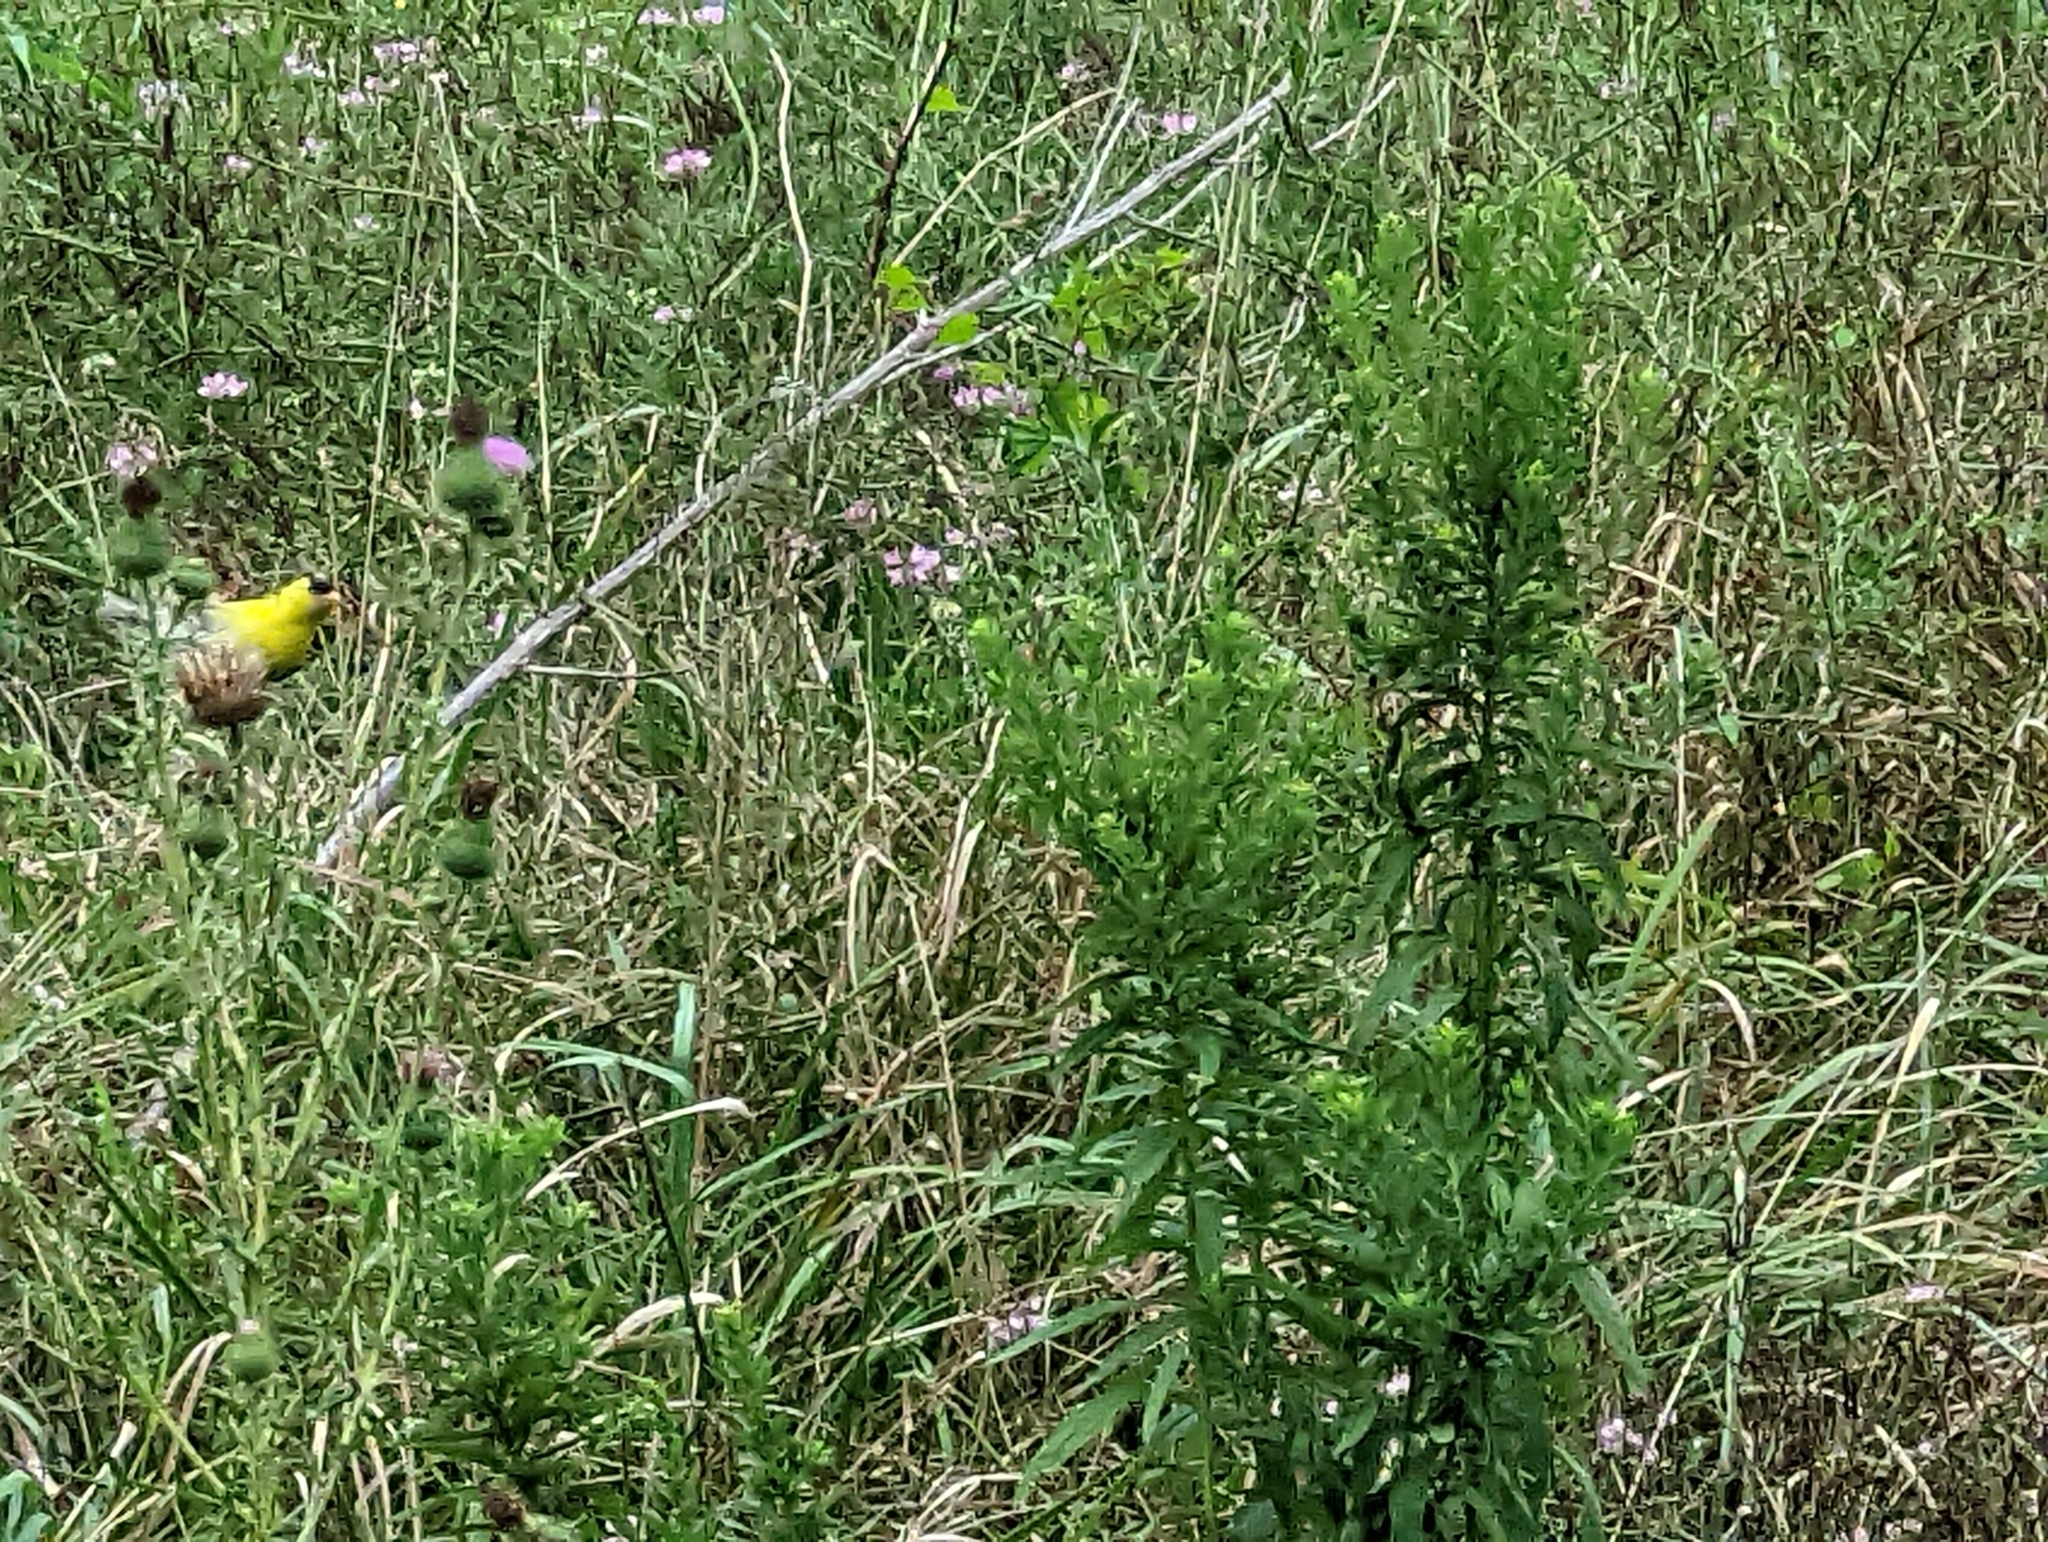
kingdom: Animalia
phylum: Chordata
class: Aves
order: Passeriformes
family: Fringillidae
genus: Spinus
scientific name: Spinus tristis
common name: American goldfinch
